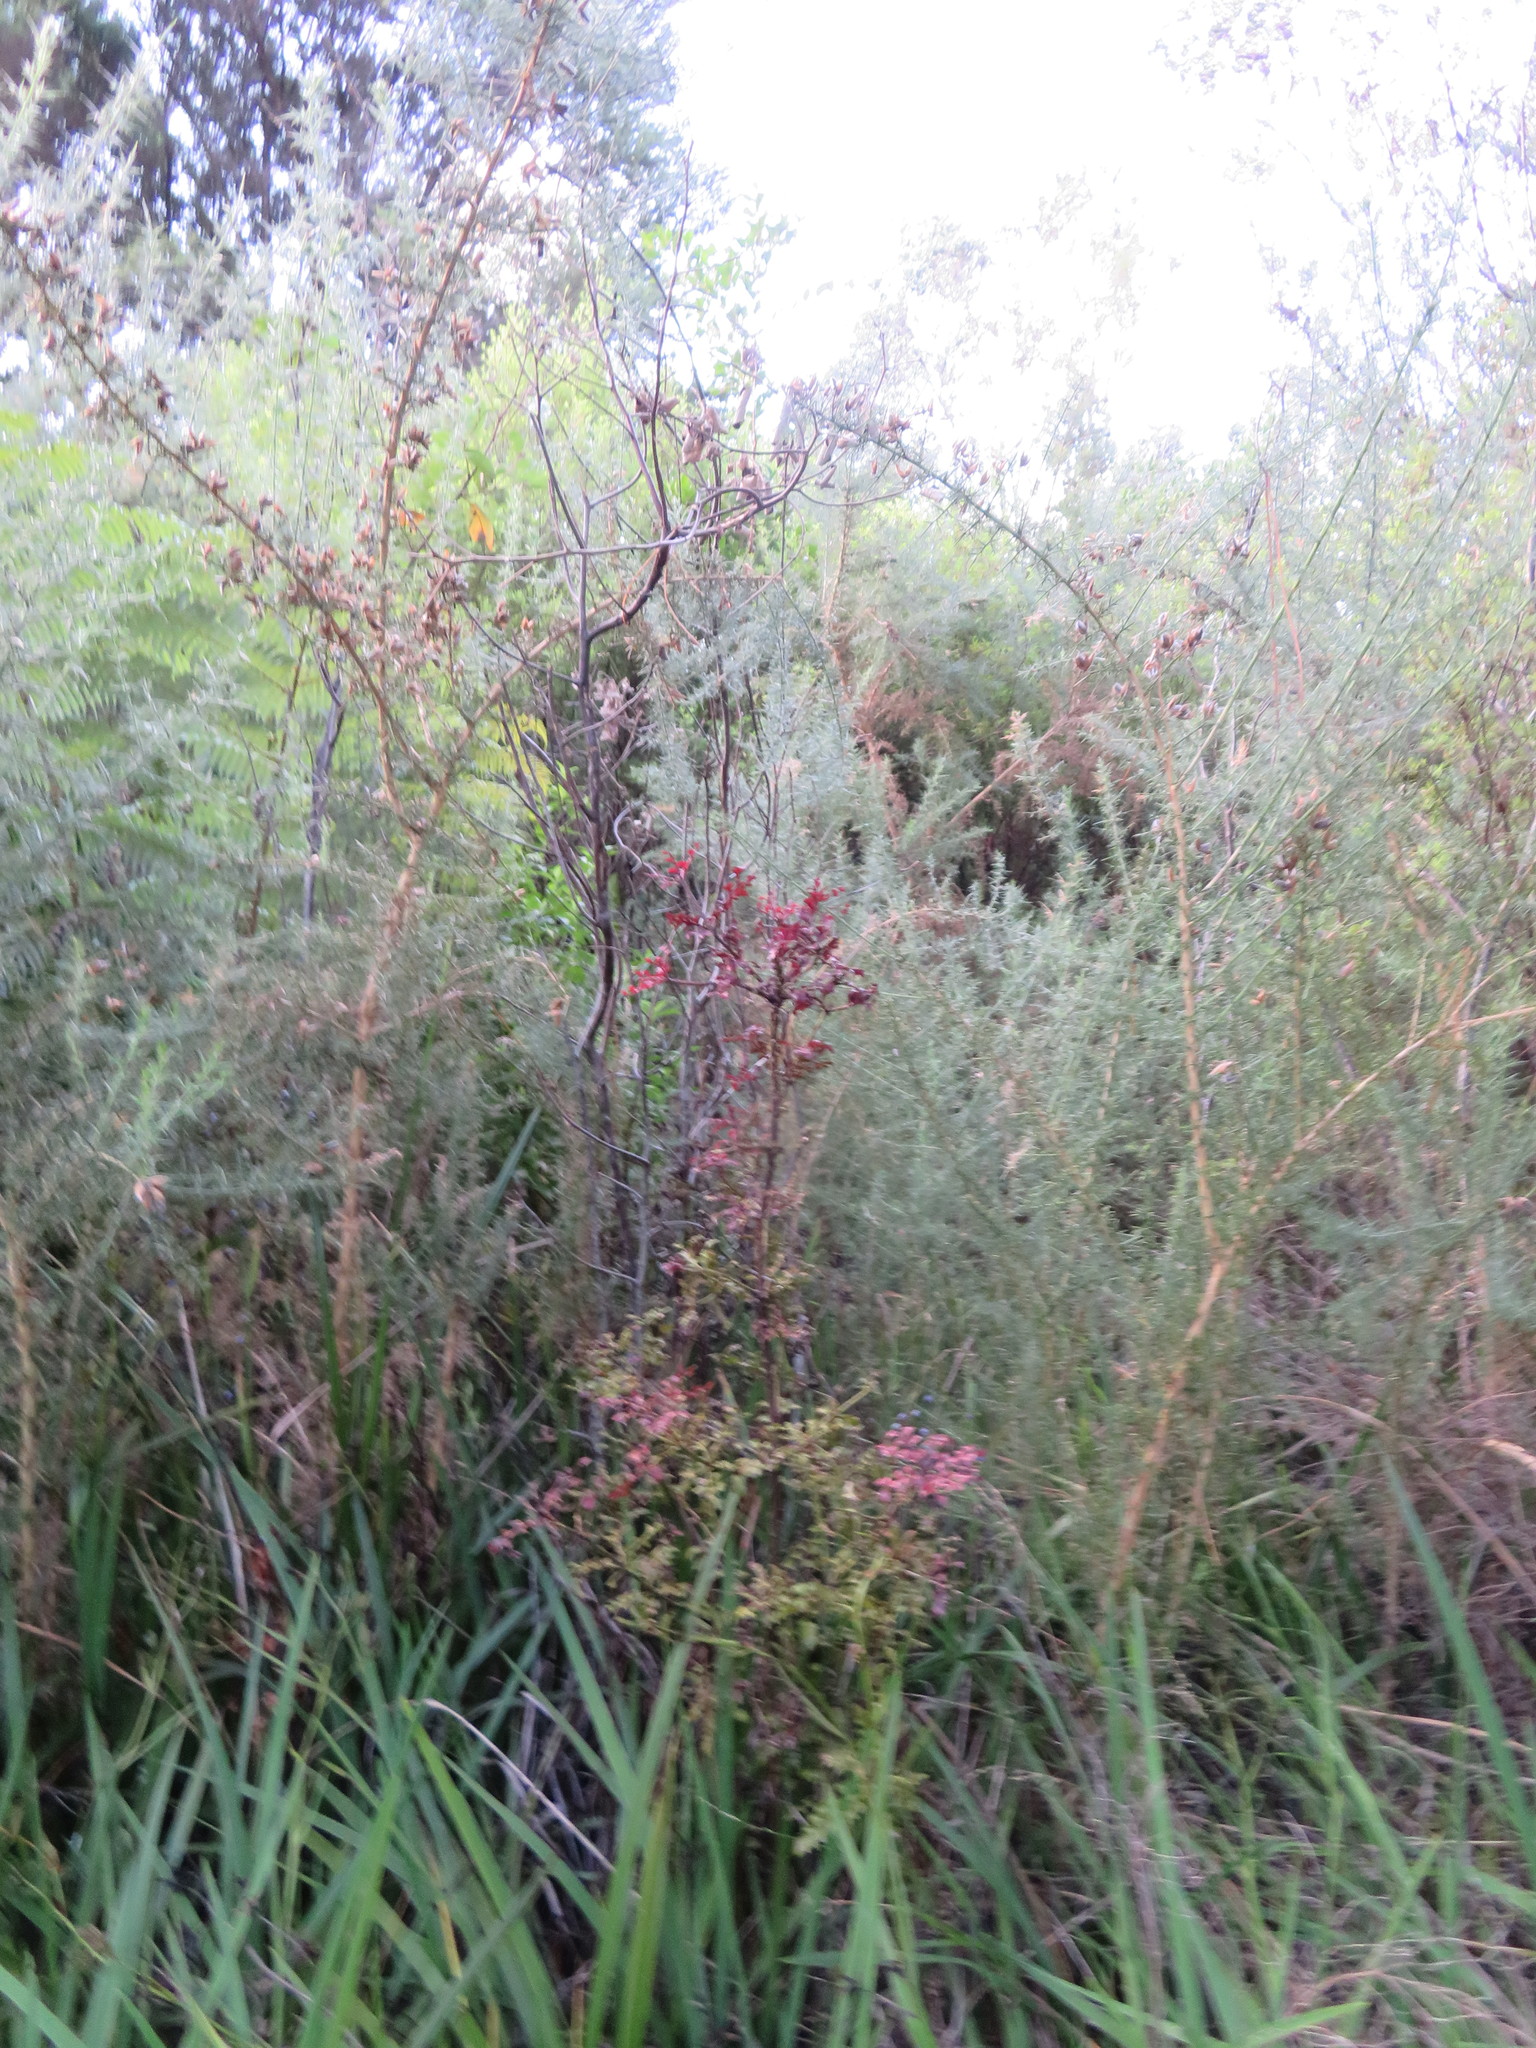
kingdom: Plantae
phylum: Tracheophyta
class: Pinopsida
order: Pinales
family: Phyllocladaceae
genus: Phyllocladus
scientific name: Phyllocladus trichomanoides
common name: Celery pine
